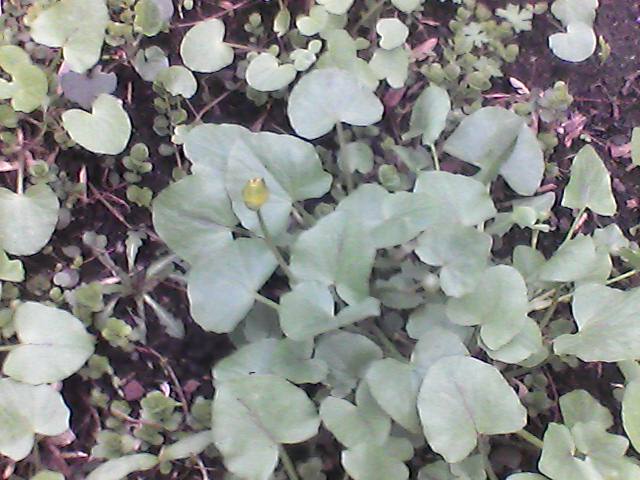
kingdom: Plantae
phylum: Tracheophyta
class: Magnoliopsida
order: Ranunculales
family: Ranunculaceae
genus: Ficaria
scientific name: Ficaria verna
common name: Lesser celandine
